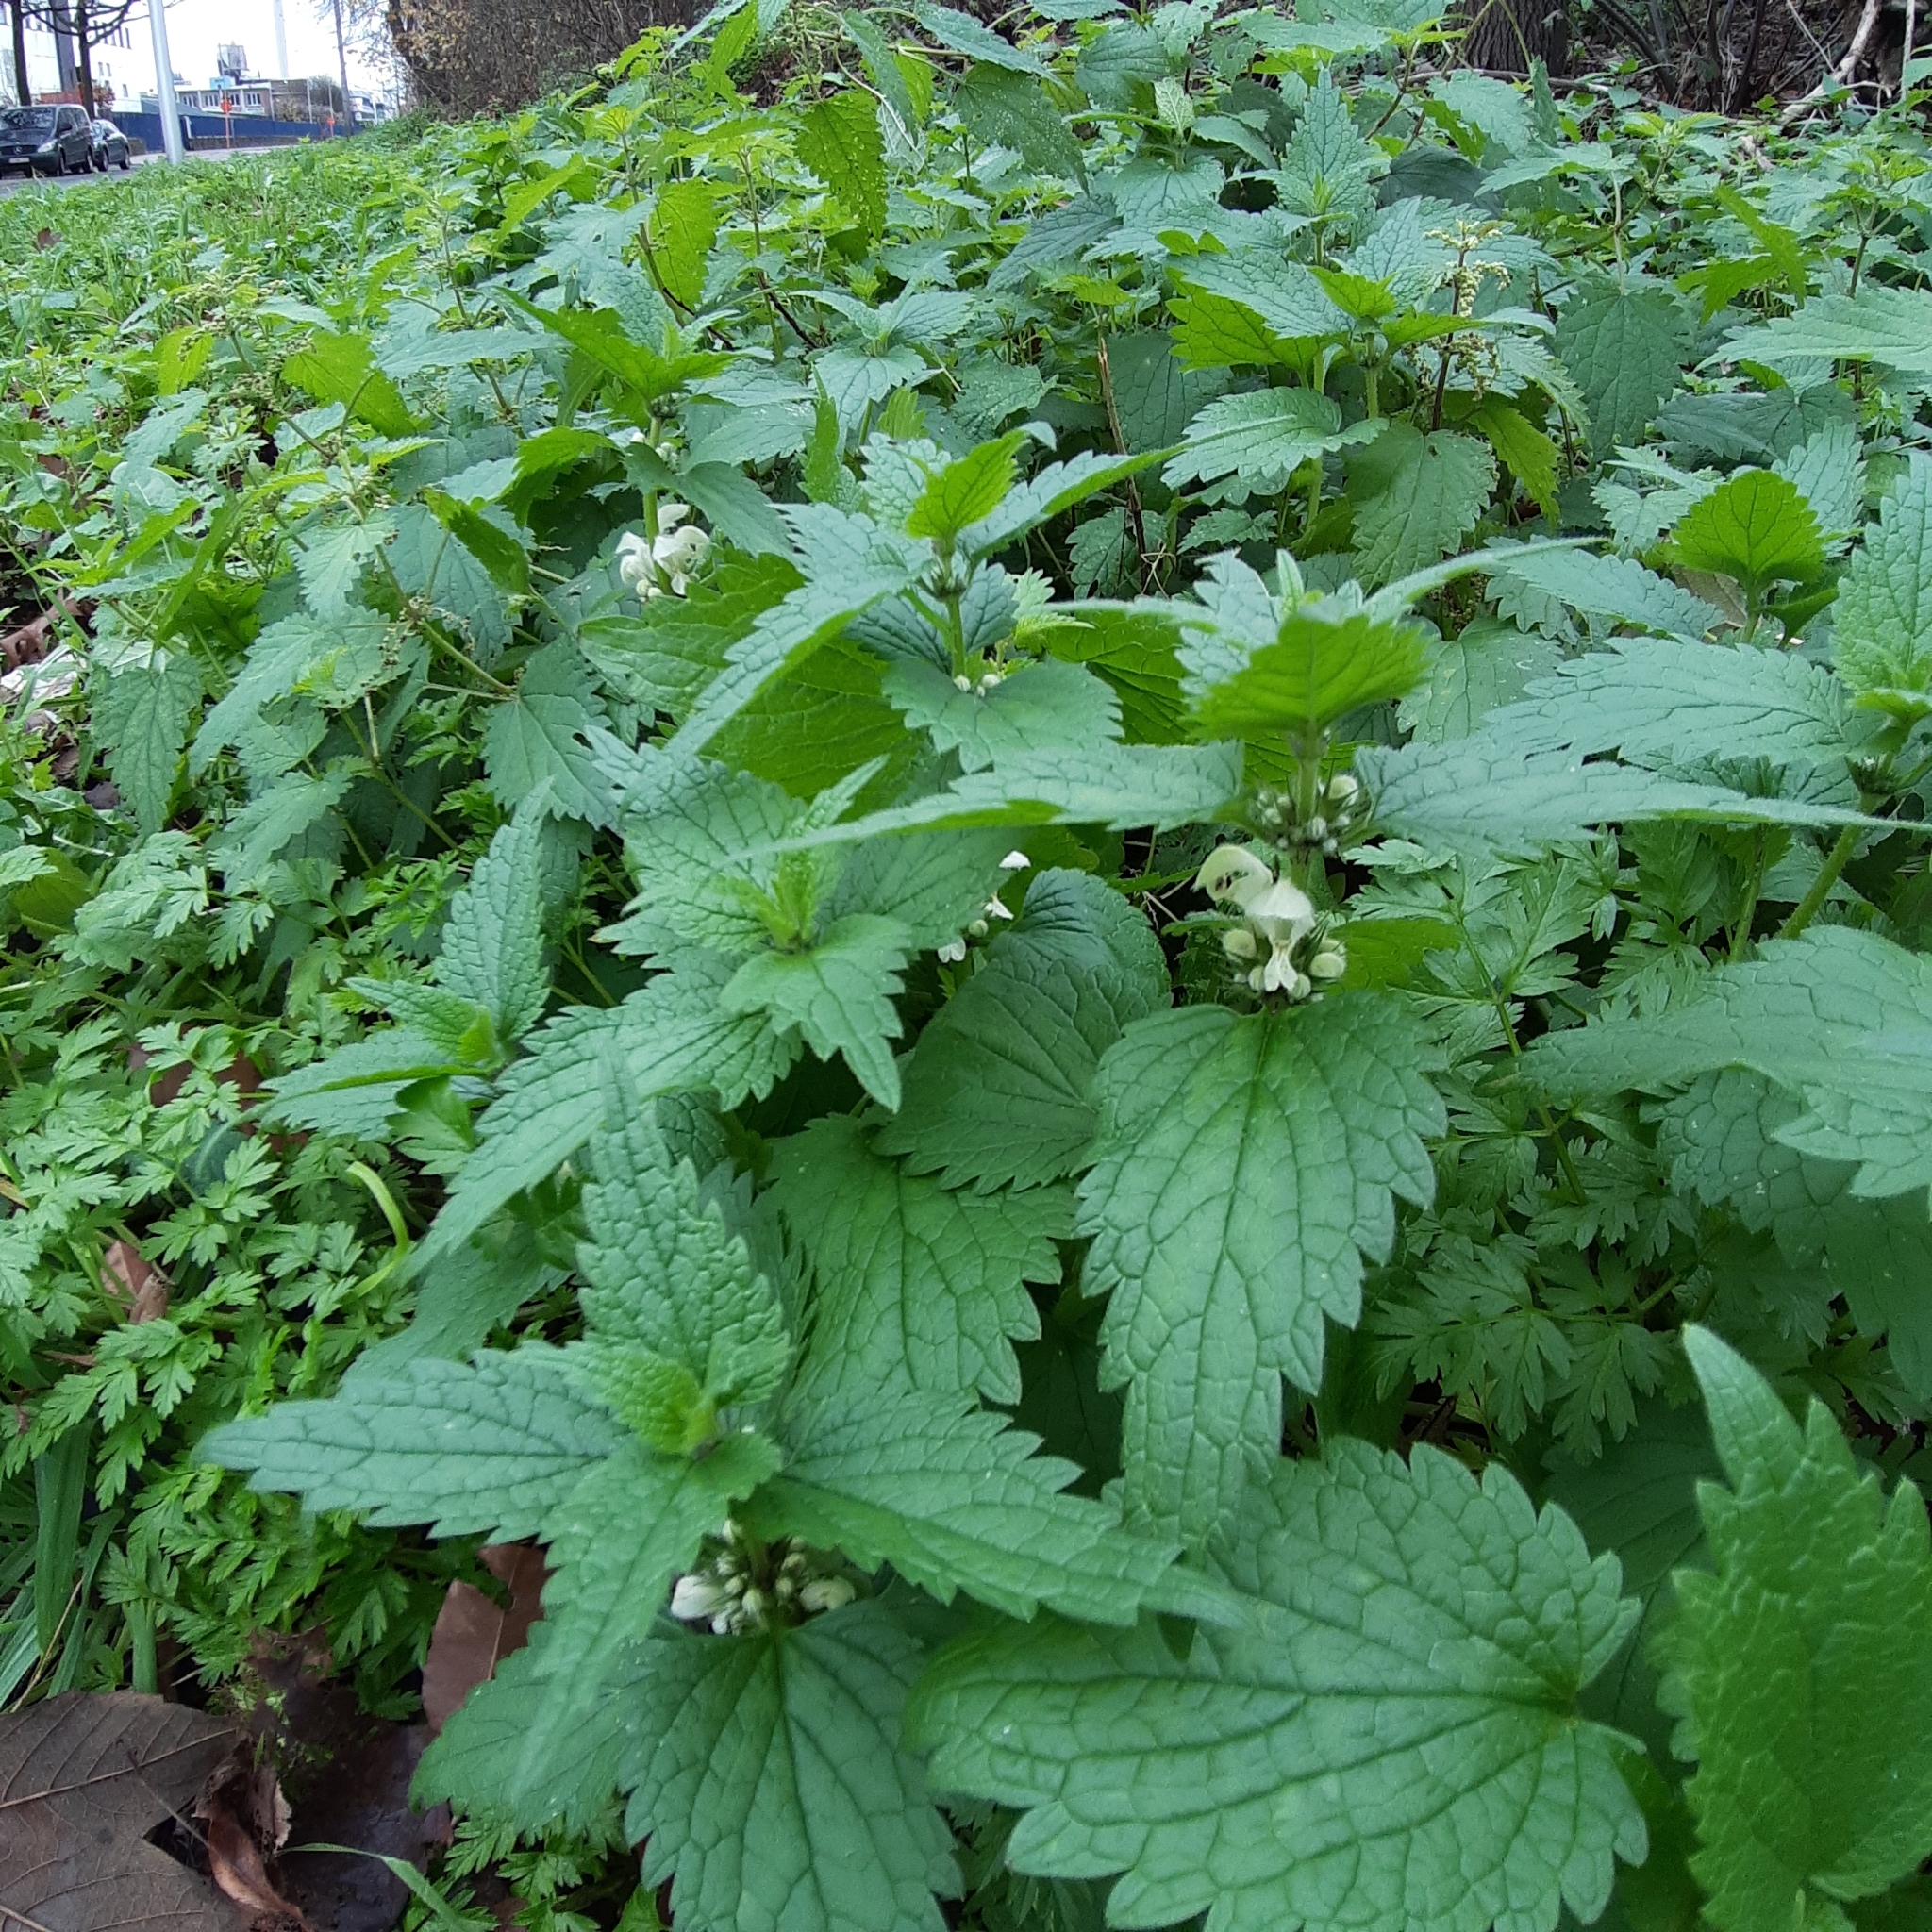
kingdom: Plantae
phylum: Tracheophyta
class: Magnoliopsida
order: Lamiales
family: Lamiaceae
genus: Lamium
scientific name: Lamium album
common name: White dead-nettle
